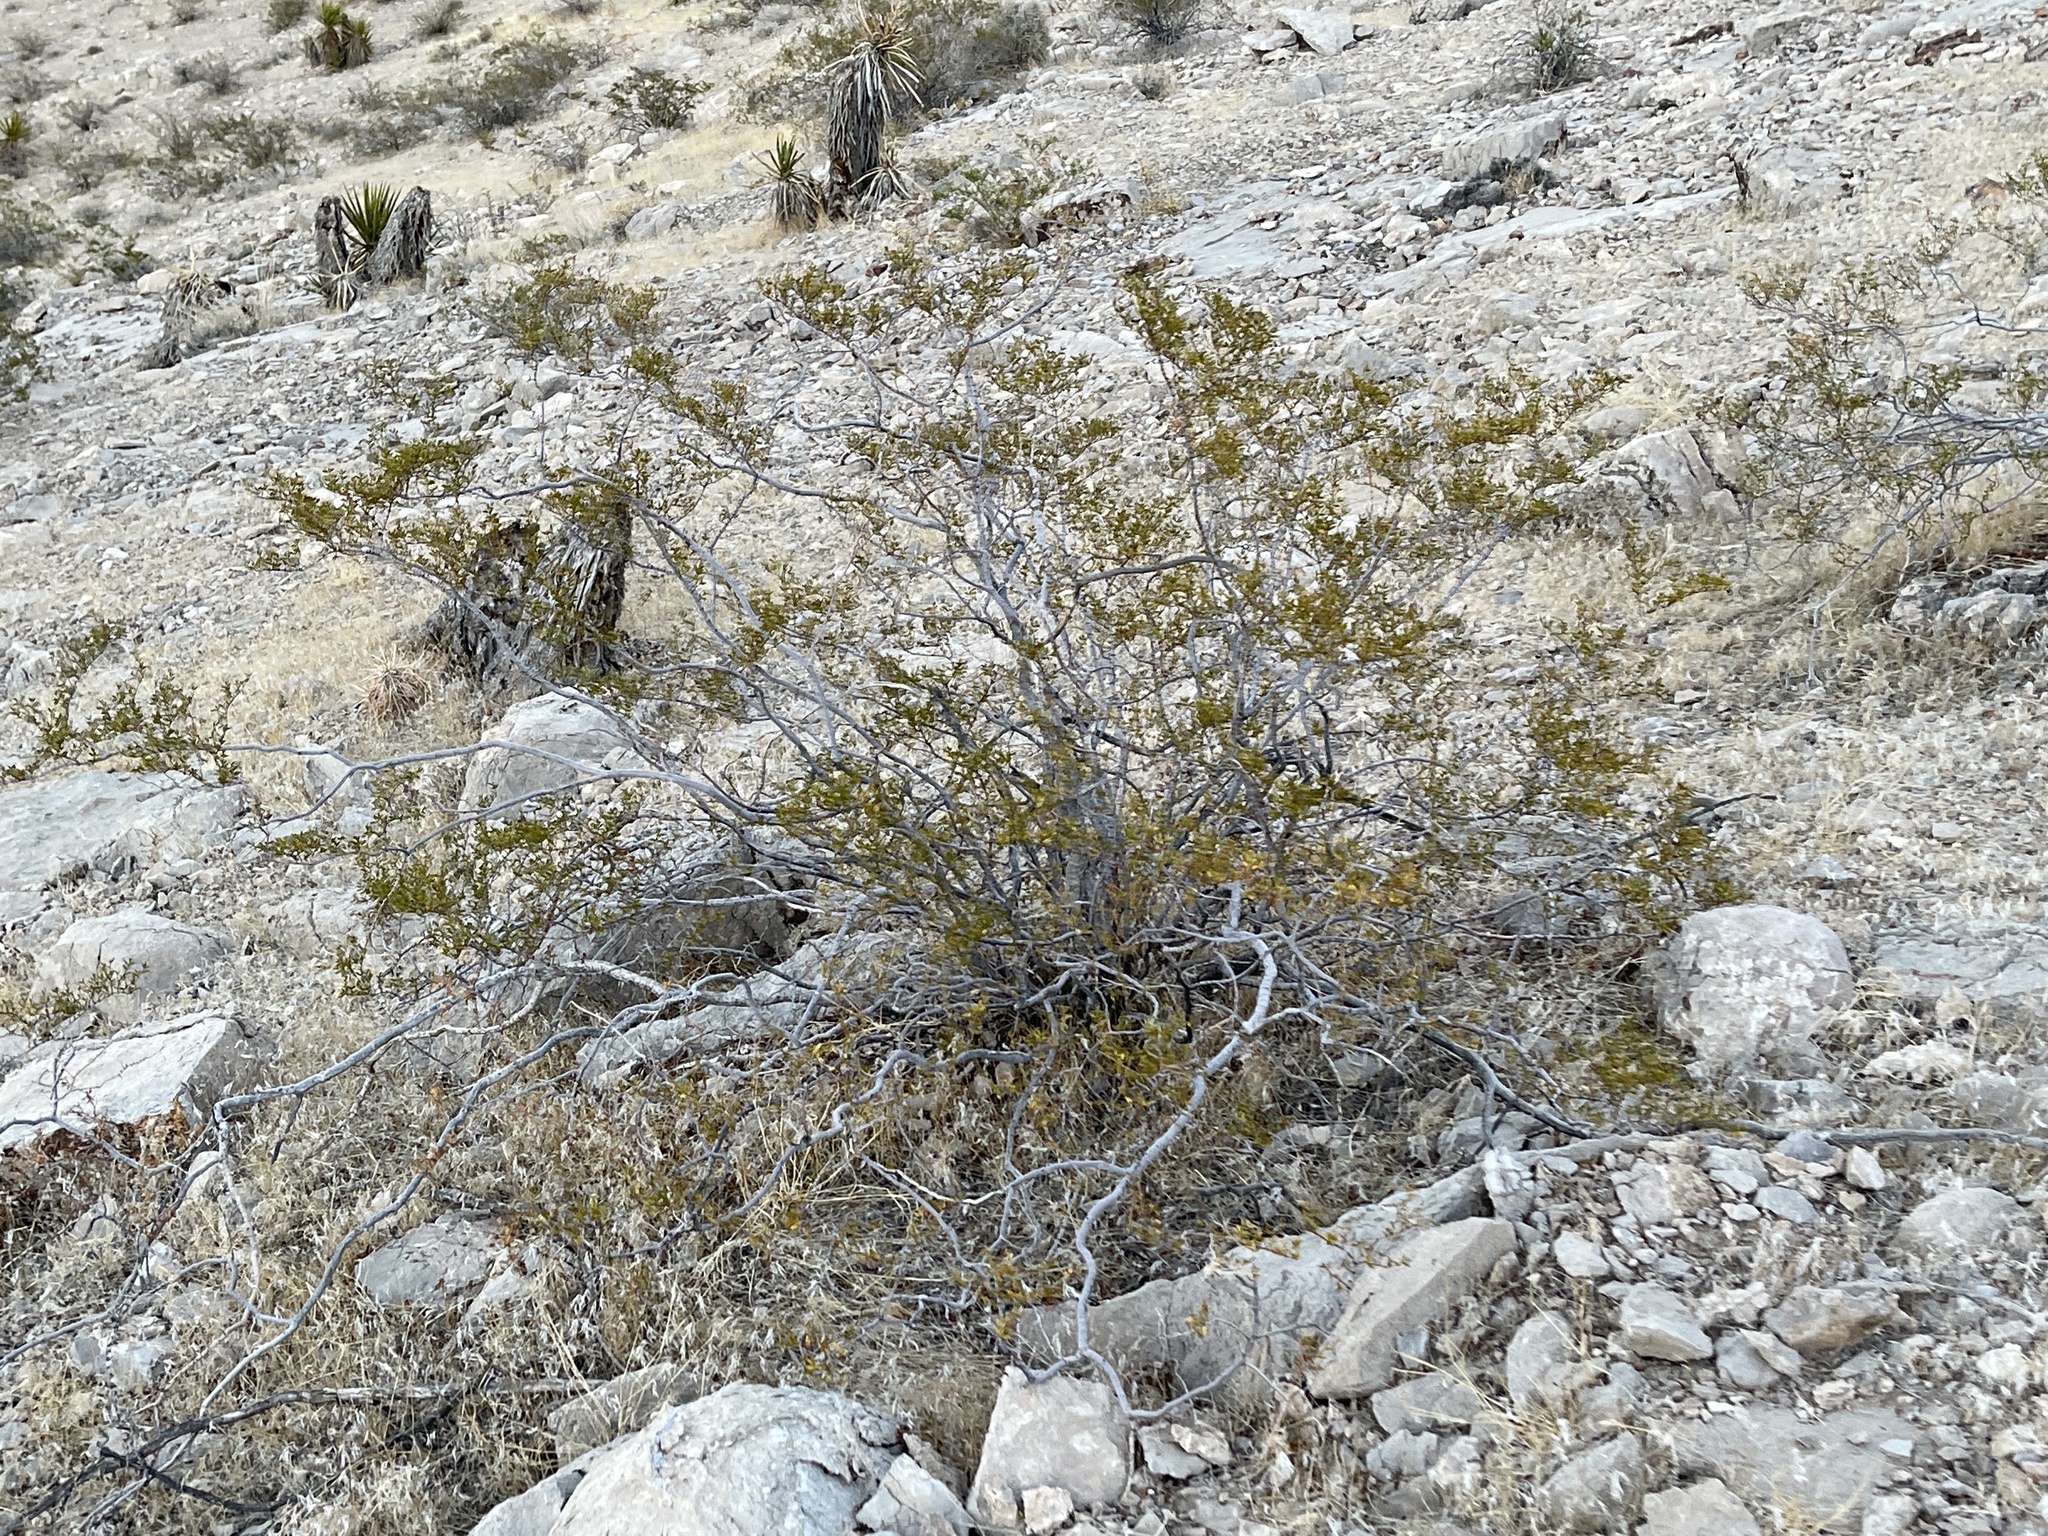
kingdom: Plantae
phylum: Tracheophyta
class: Magnoliopsida
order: Zygophyllales
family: Zygophyllaceae
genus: Larrea
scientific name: Larrea tridentata
